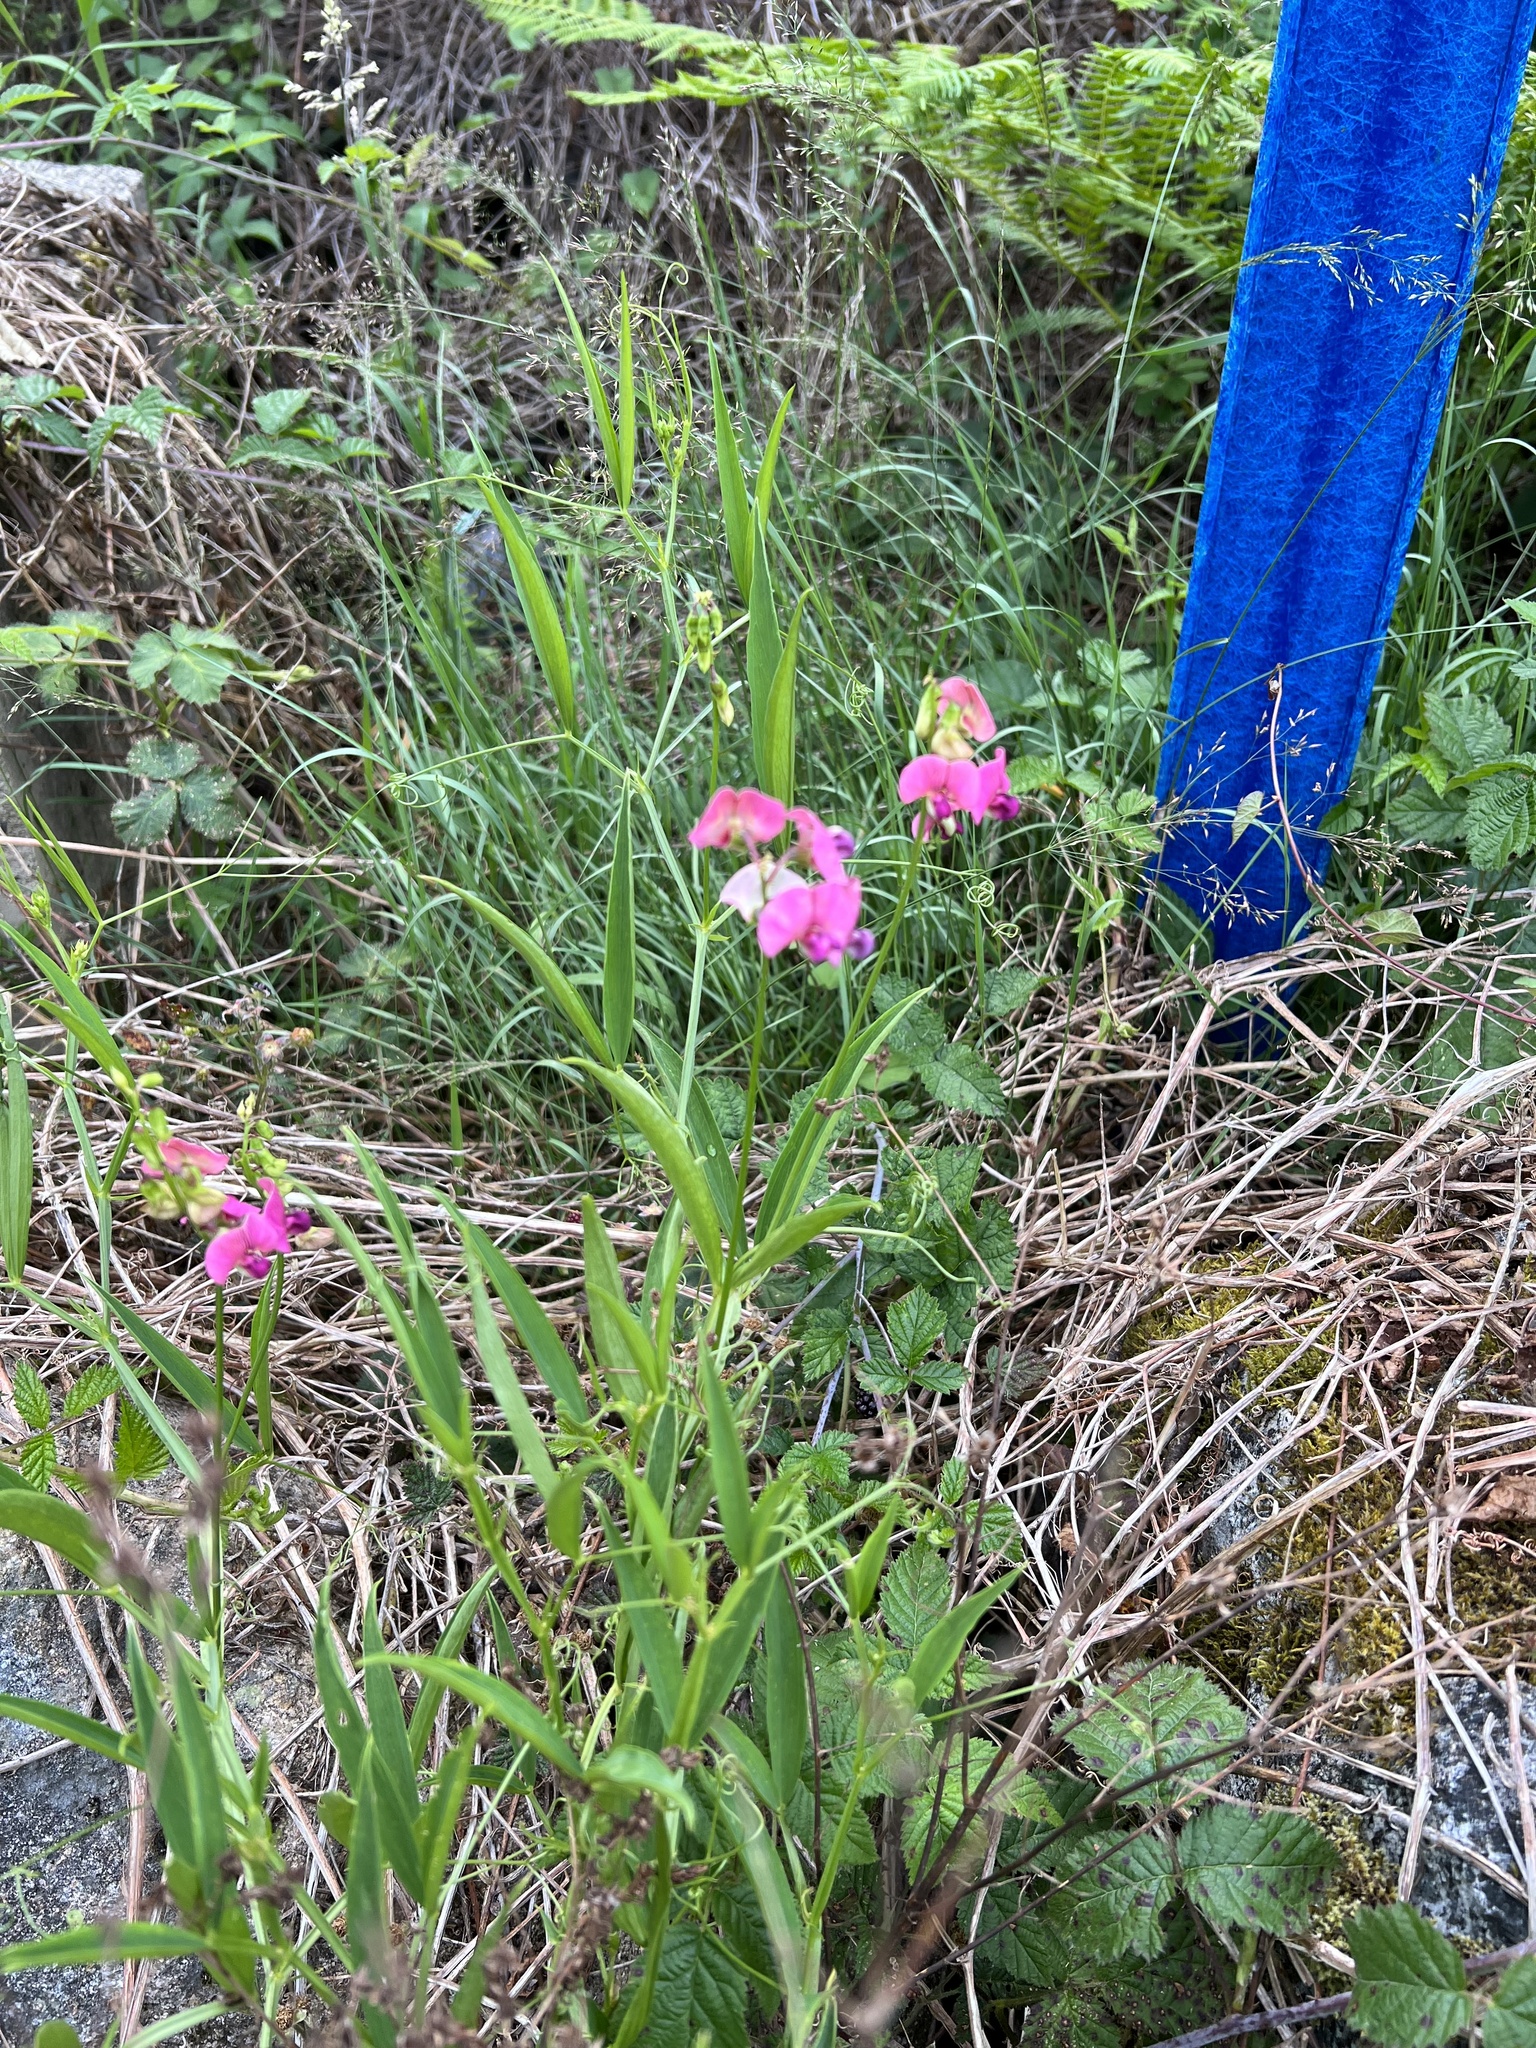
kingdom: Plantae
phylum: Tracheophyta
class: Magnoliopsida
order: Fabales
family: Fabaceae
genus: Lathyrus
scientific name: Lathyrus sylvestris
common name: Flat pea
